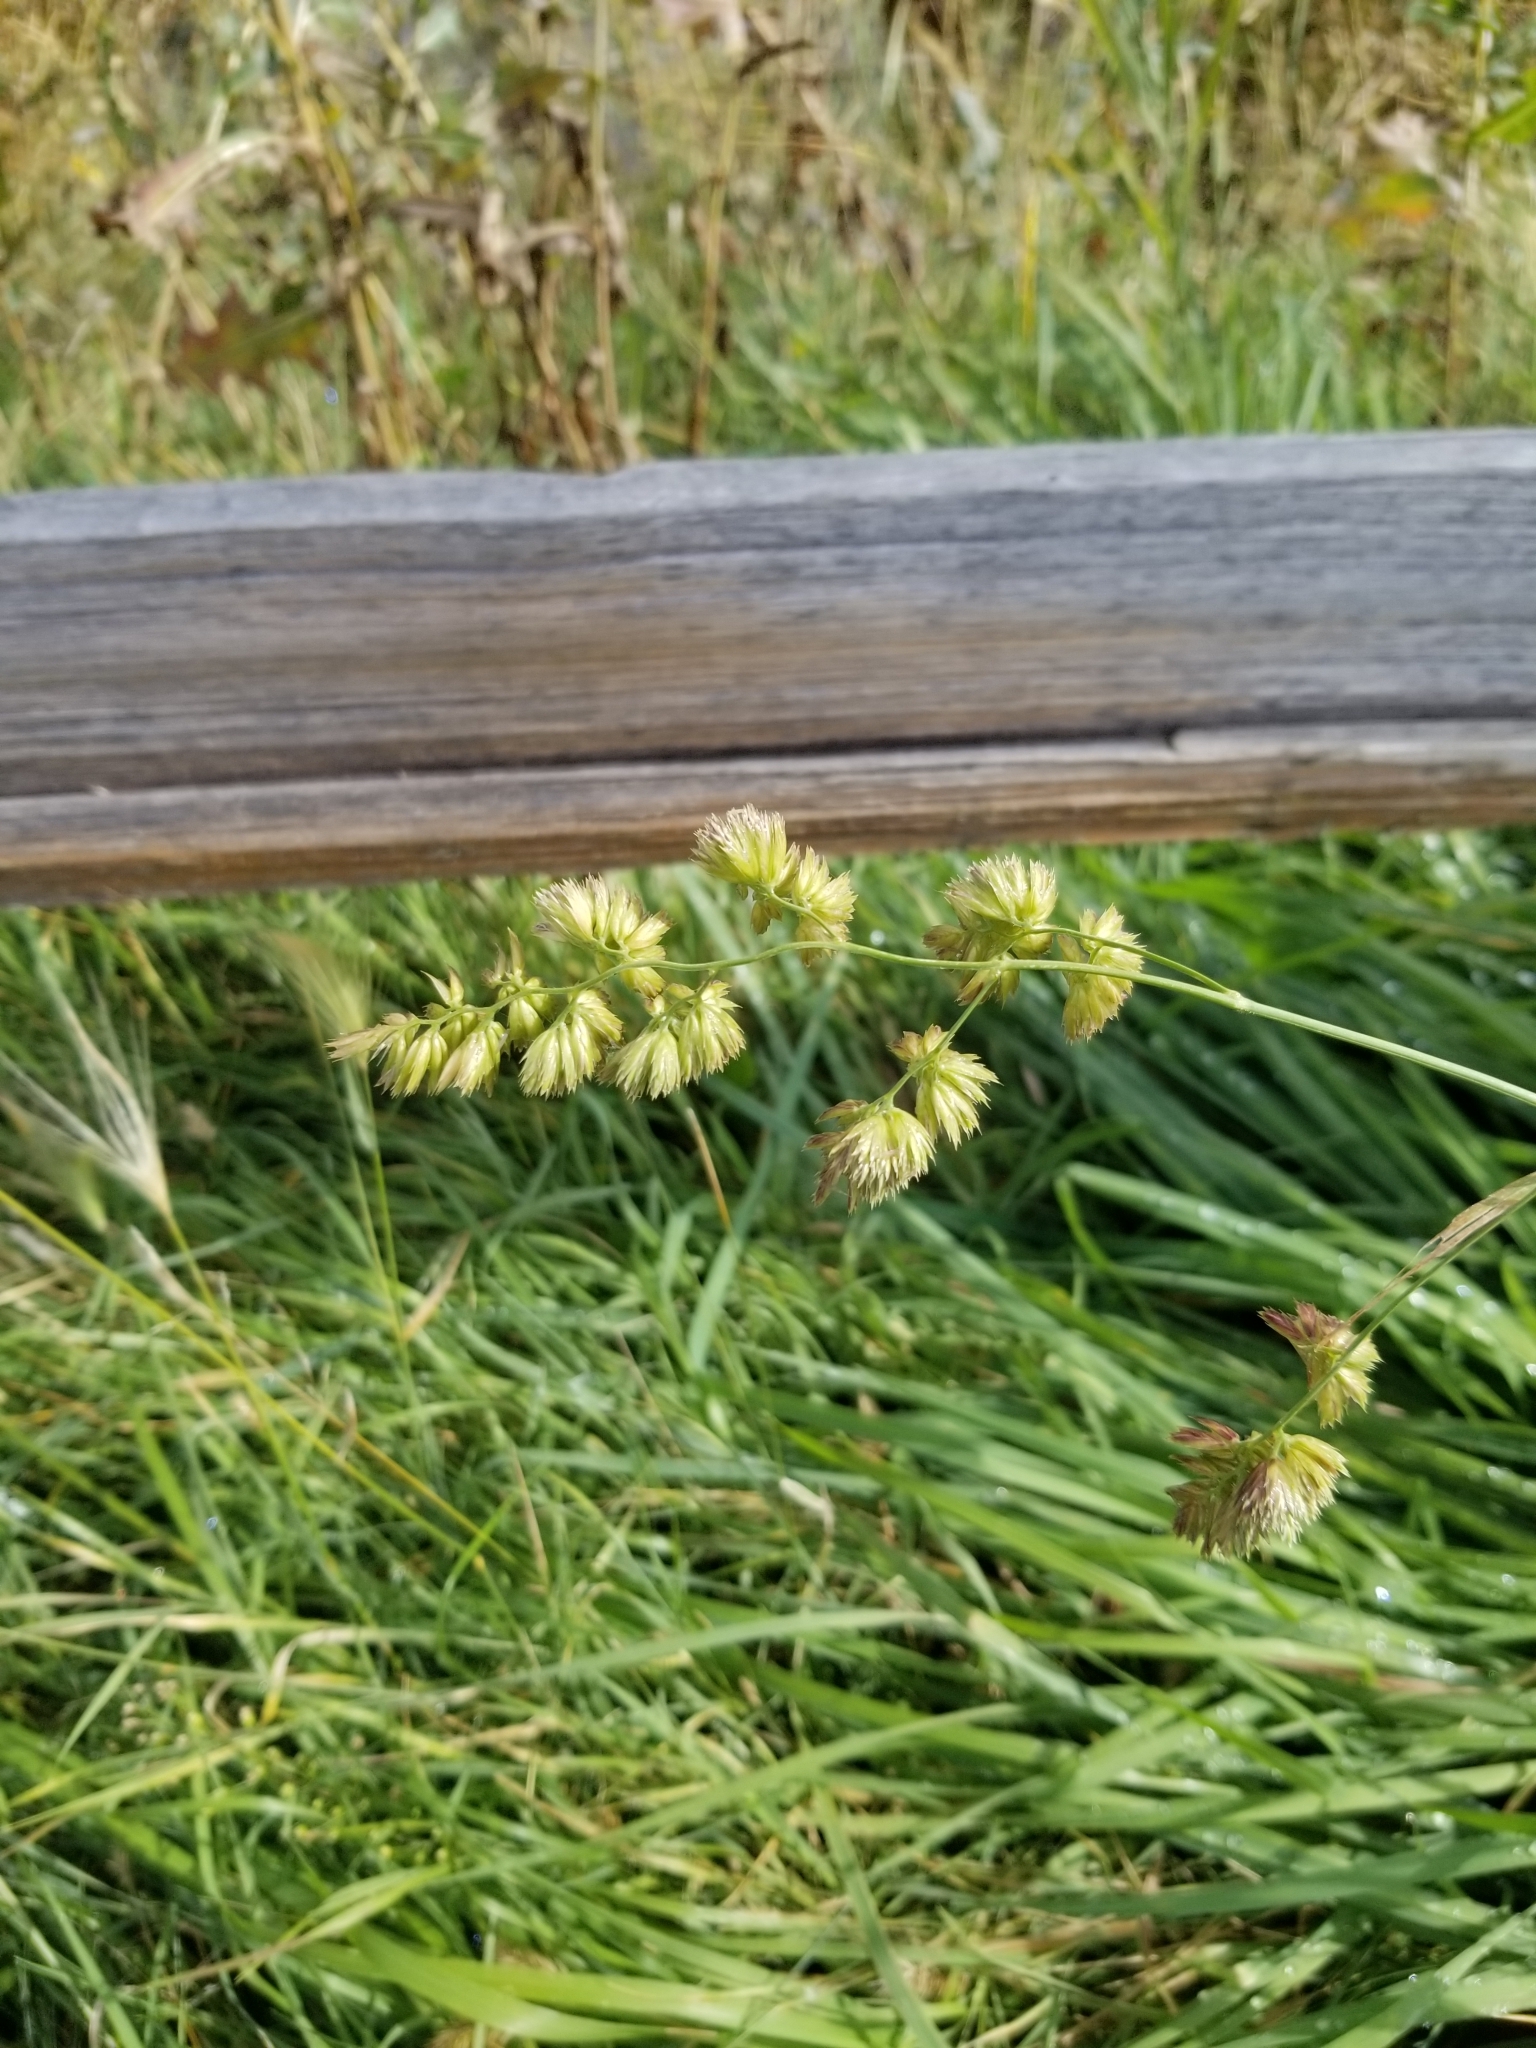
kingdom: Plantae
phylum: Tracheophyta
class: Liliopsida
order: Poales
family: Poaceae
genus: Dactylis
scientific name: Dactylis glomerata
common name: Orchardgrass
